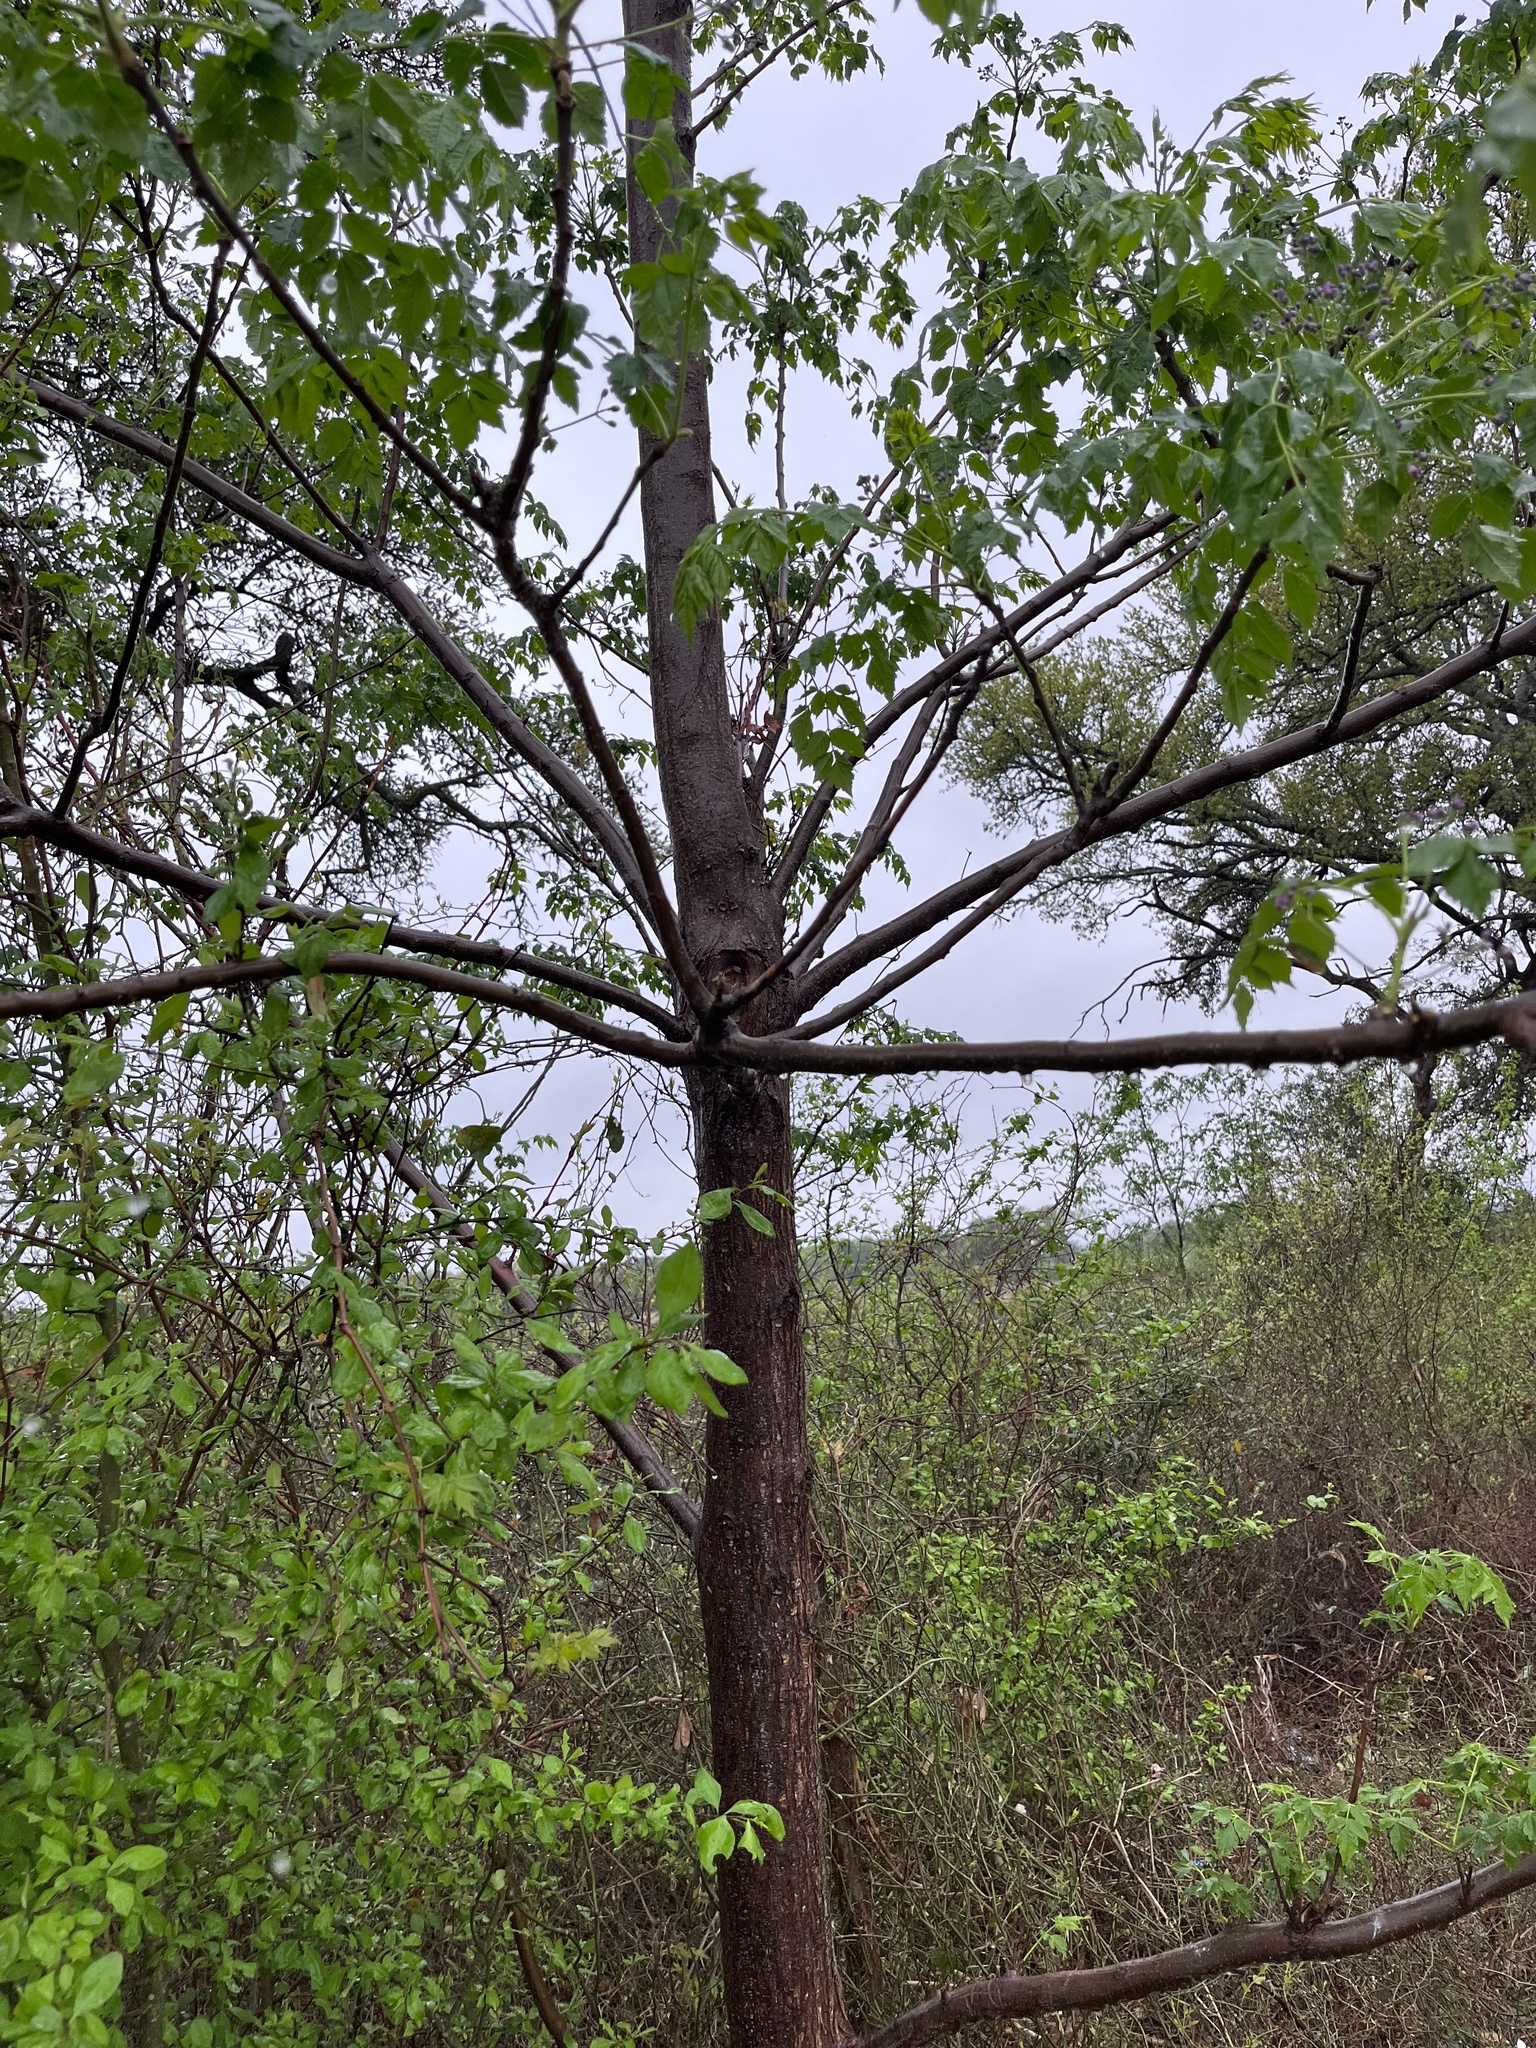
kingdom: Plantae
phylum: Tracheophyta
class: Magnoliopsida
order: Sapindales
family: Meliaceae
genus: Melia
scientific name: Melia azedarach
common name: Chinaberrytree
